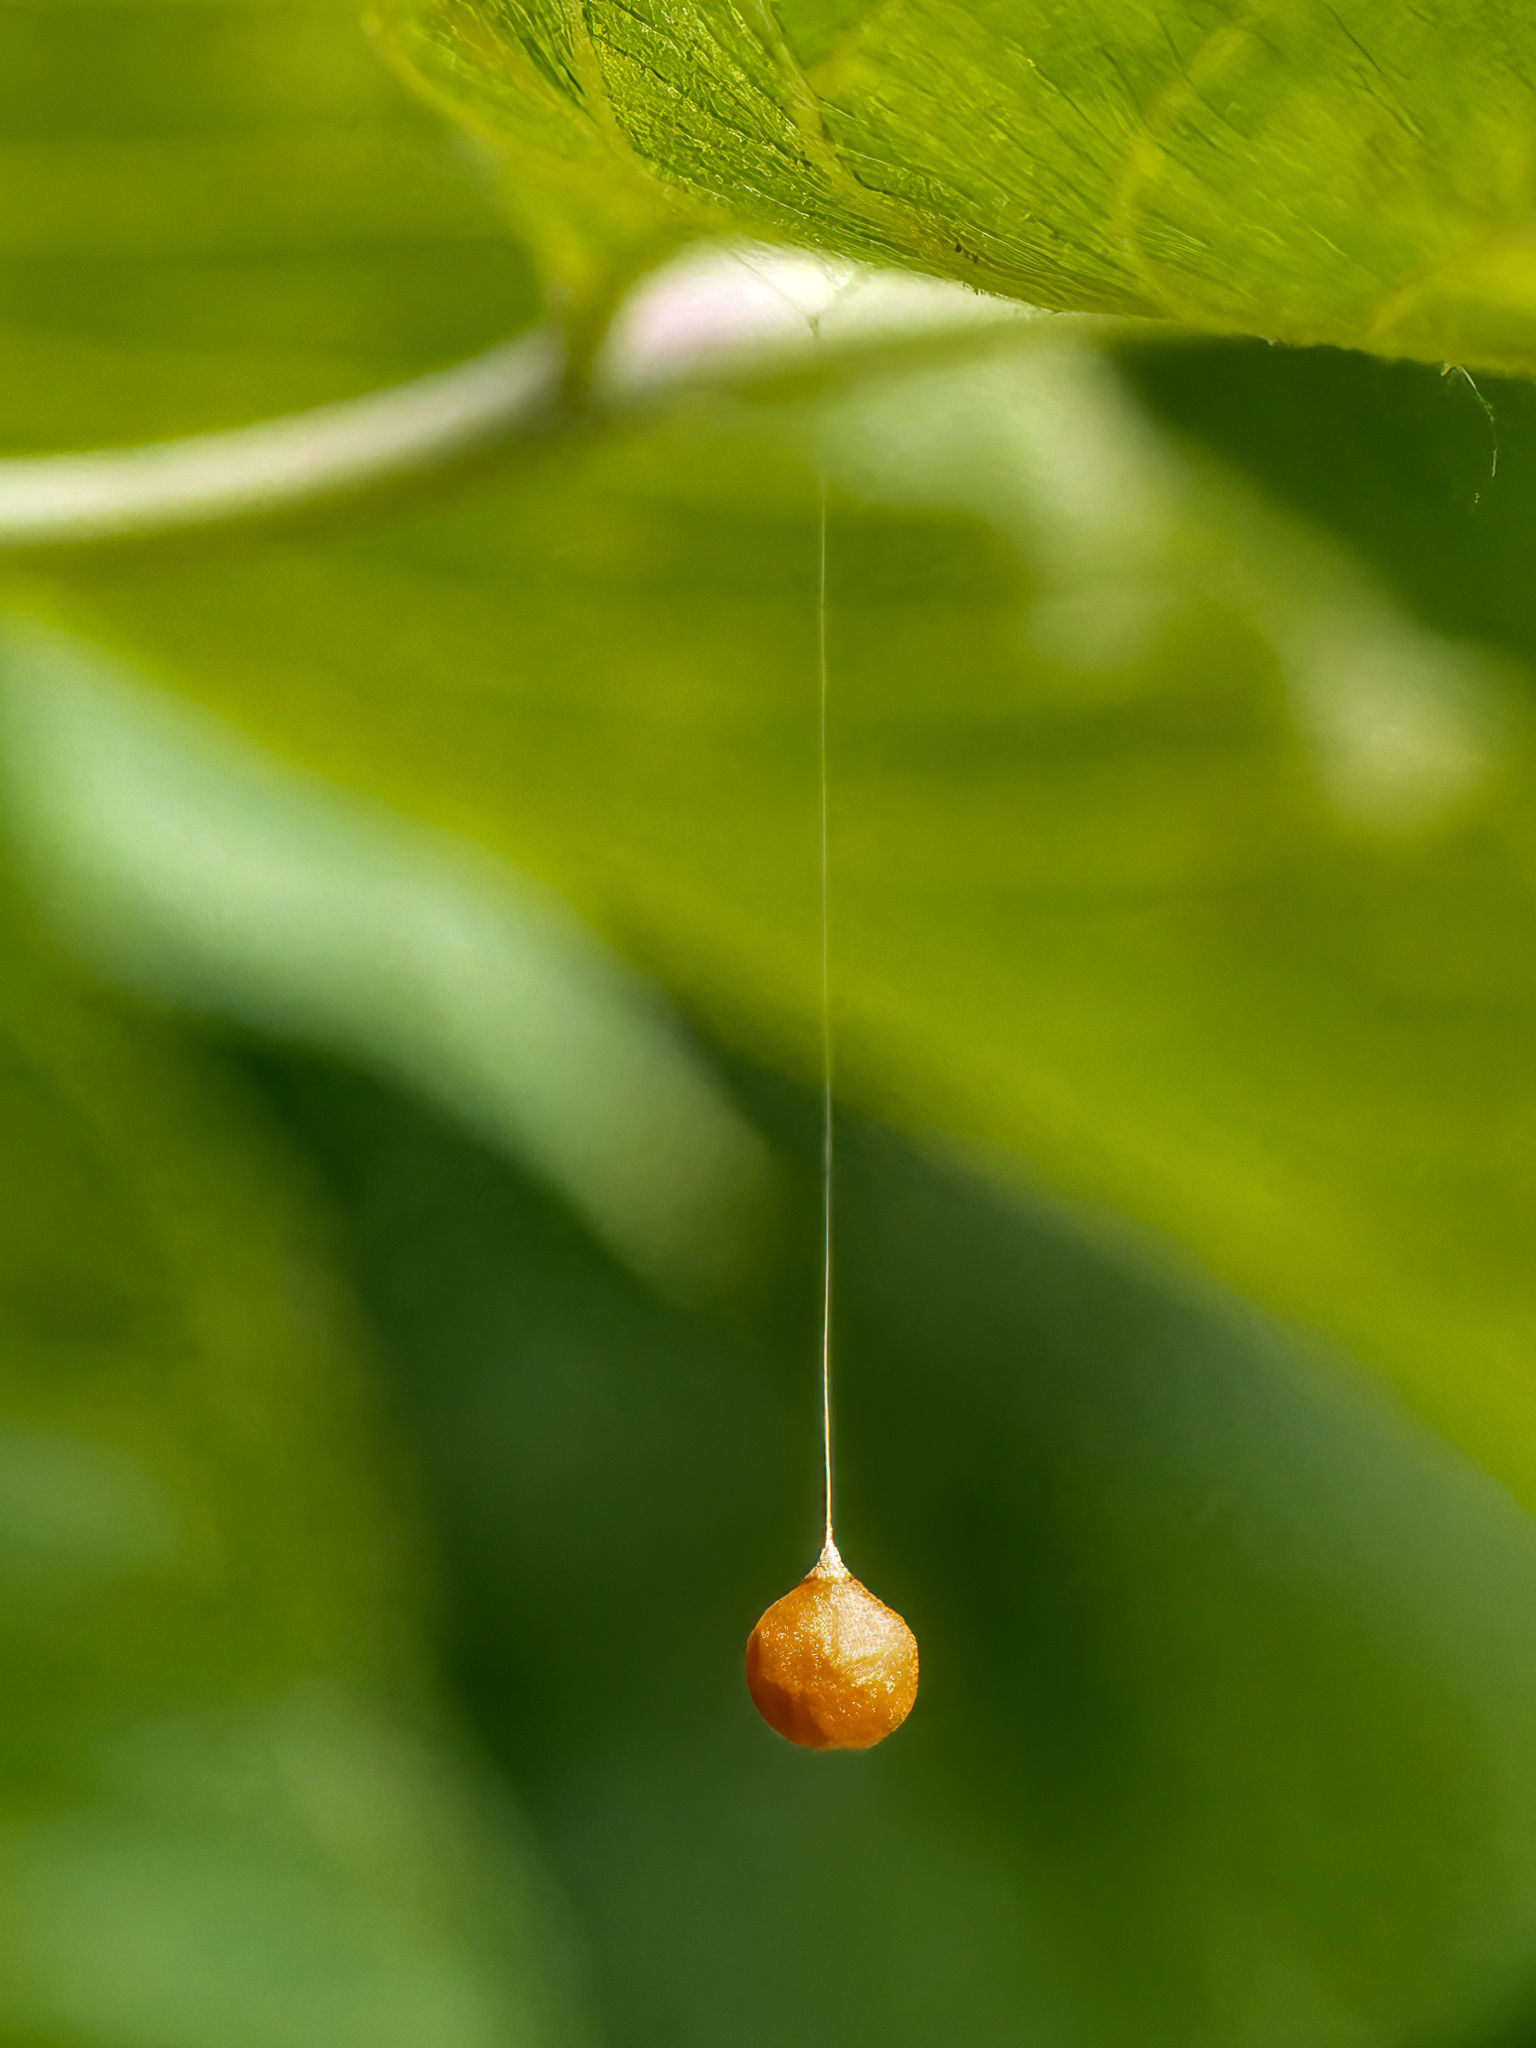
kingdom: Animalia
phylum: Arthropoda
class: Arachnida
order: Araneae
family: Theridiosomatidae
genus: Theridiosoma
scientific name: Theridiosoma gemmosum
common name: Ray spider
